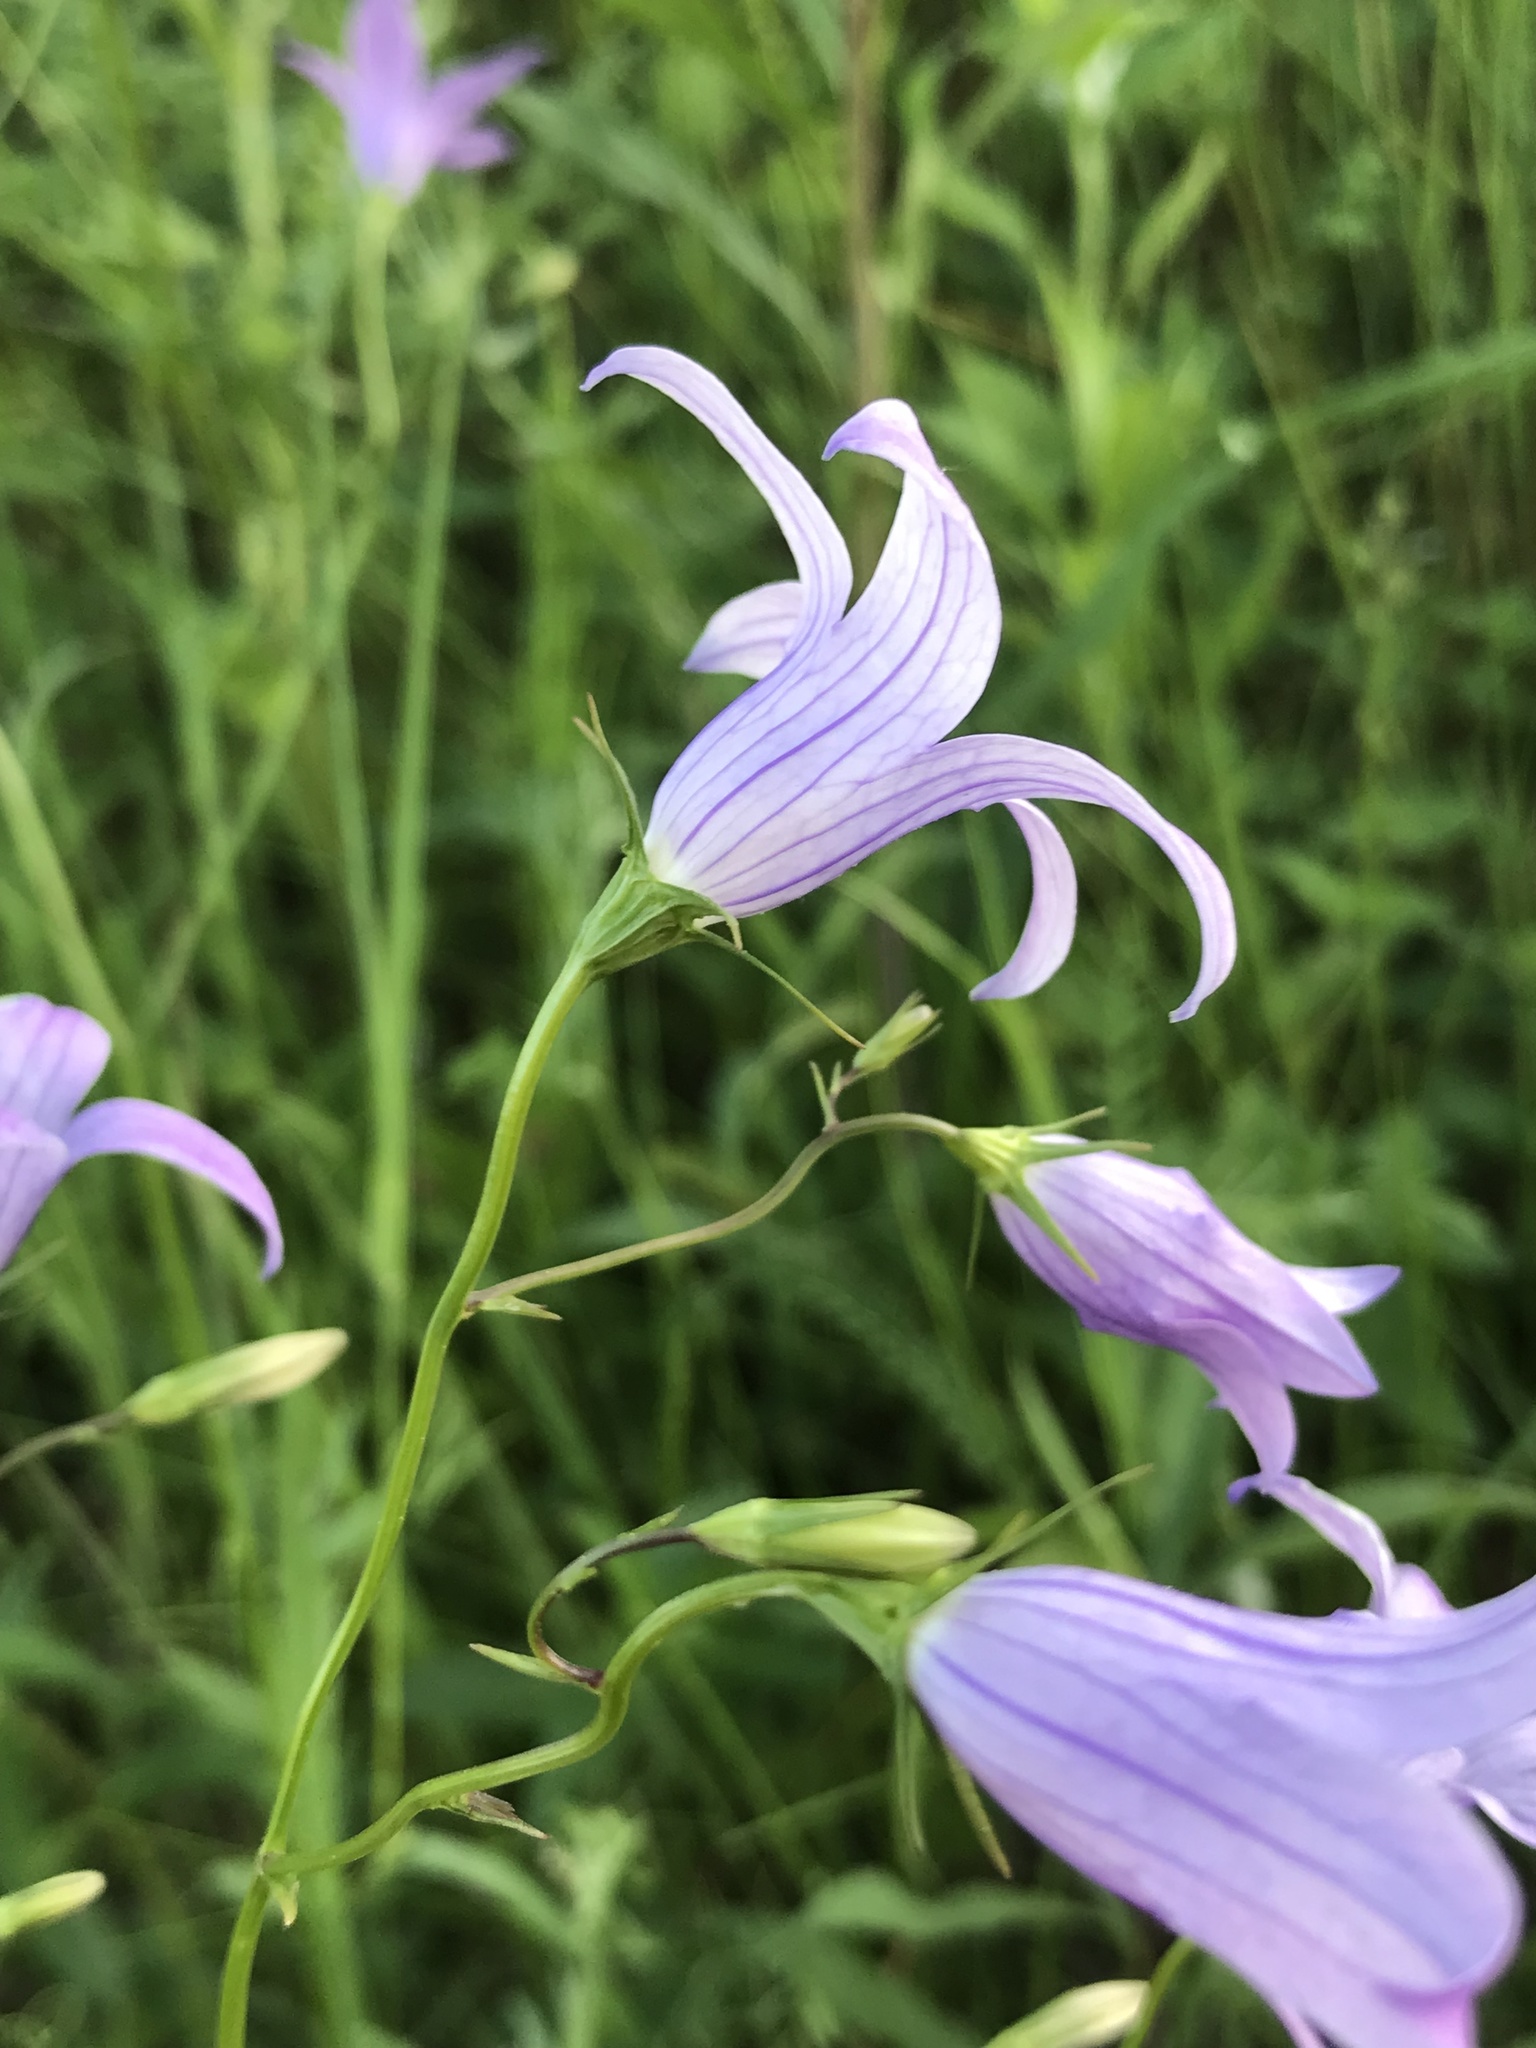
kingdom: Plantae
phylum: Tracheophyta
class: Magnoliopsida
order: Asterales
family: Campanulaceae
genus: Campanula
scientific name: Campanula patula
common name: Spreading bellflower
